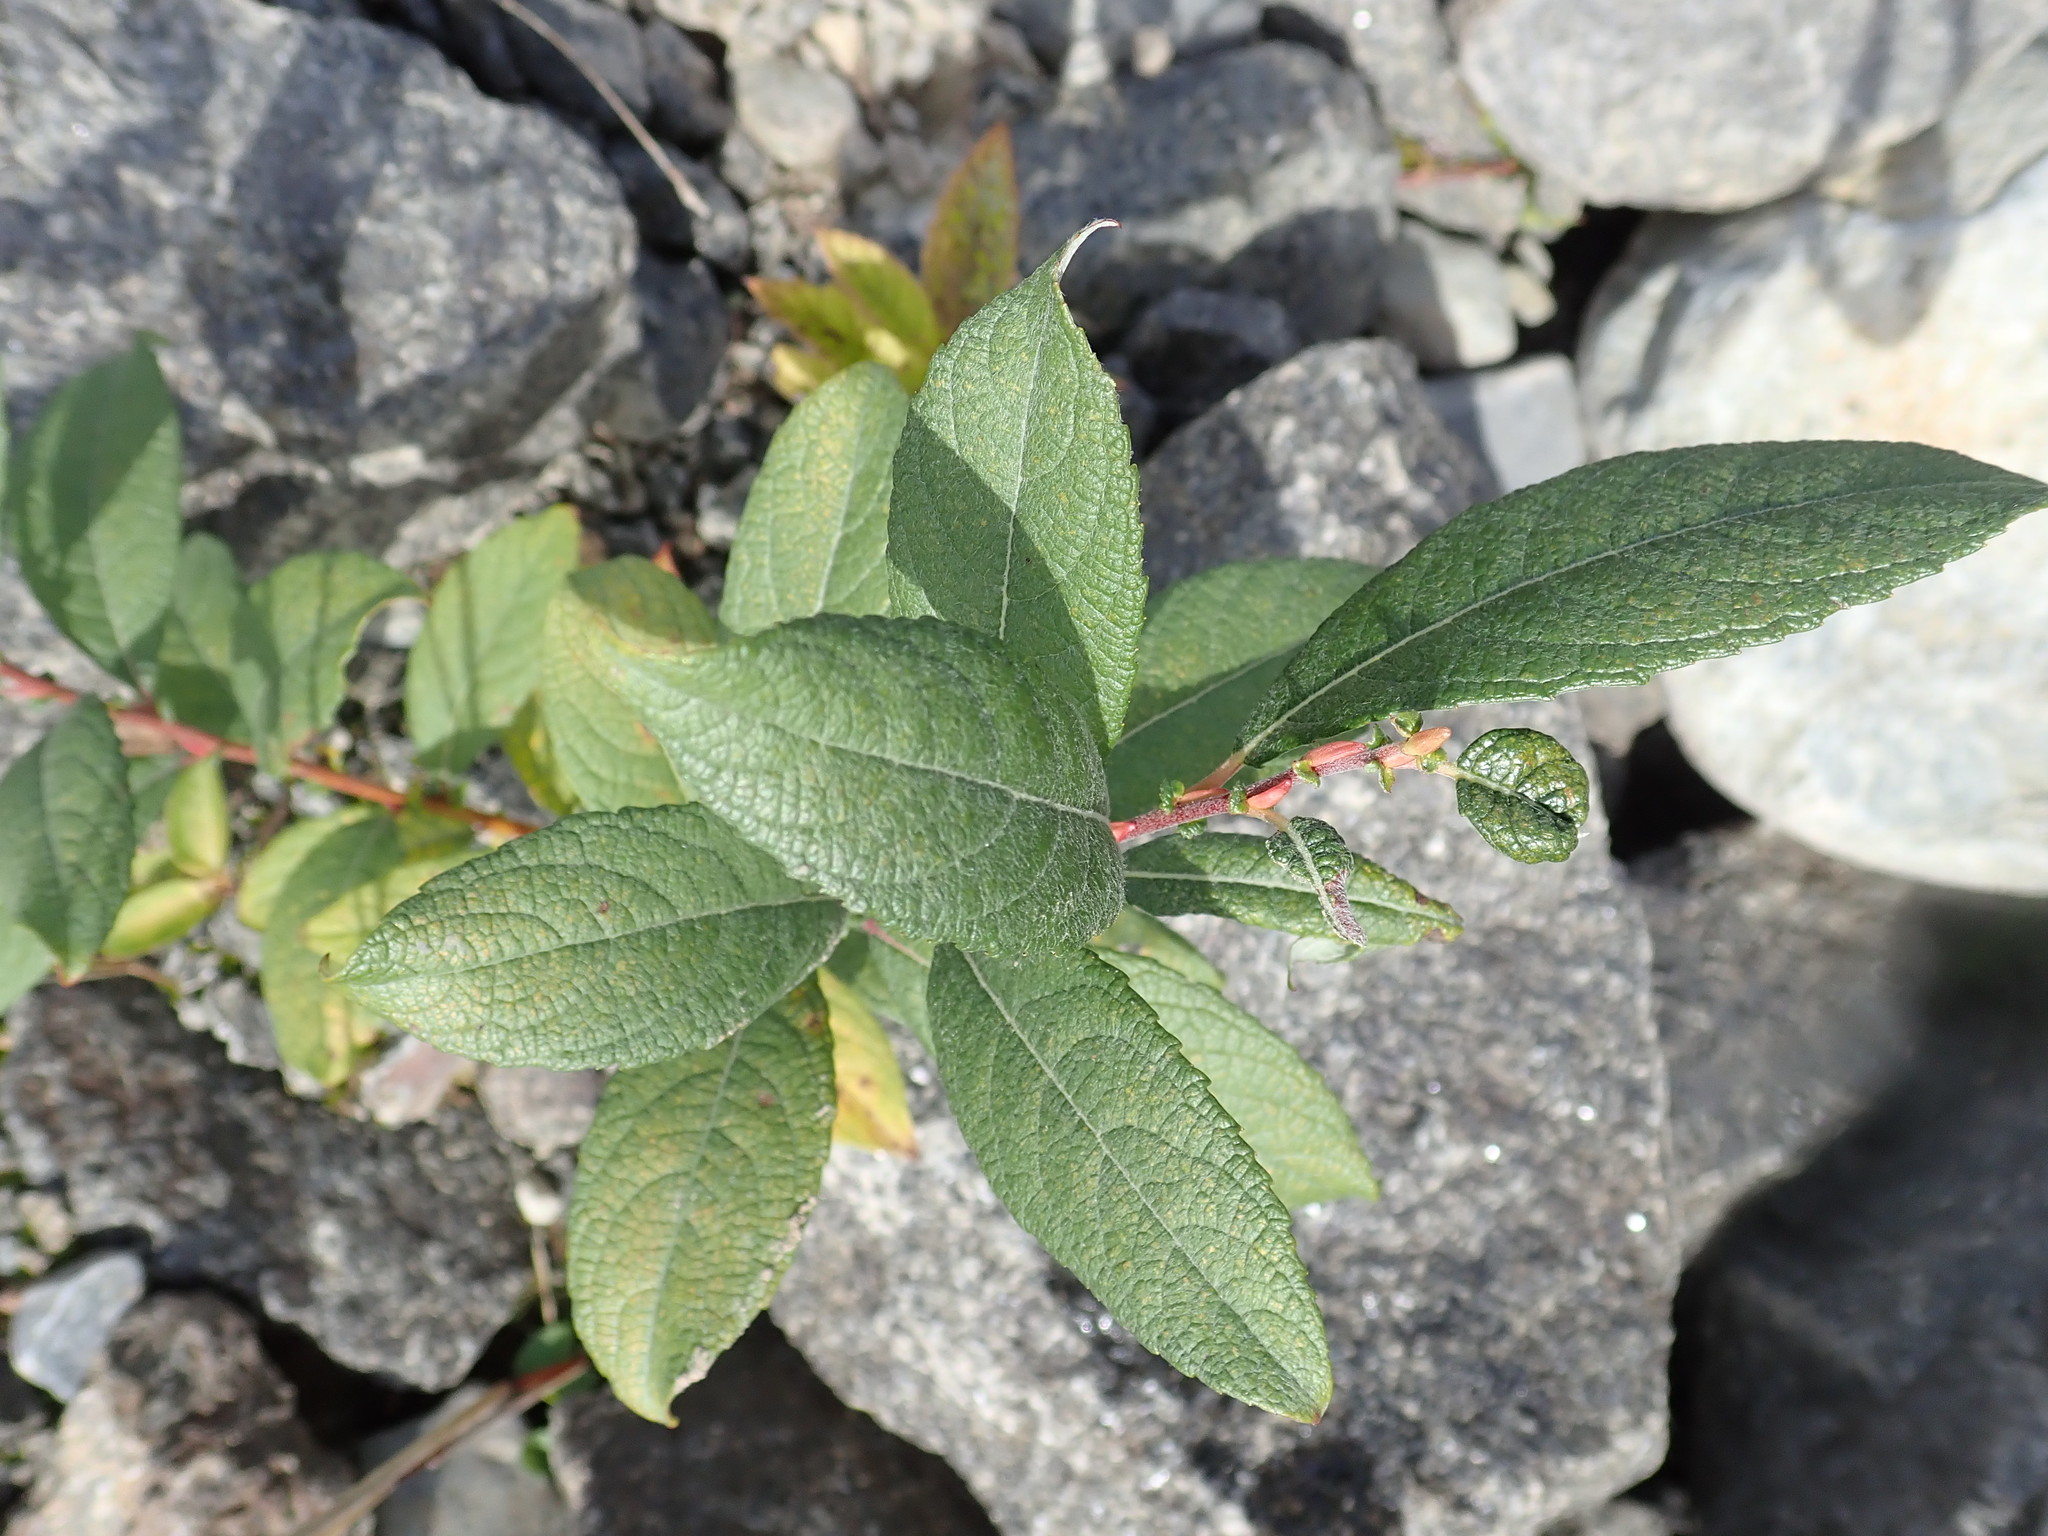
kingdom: Plantae
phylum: Tracheophyta
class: Magnoliopsida
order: Malpighiales
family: Salicaceae
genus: Salix
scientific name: Salix bebbiana
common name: Bebb's willow
